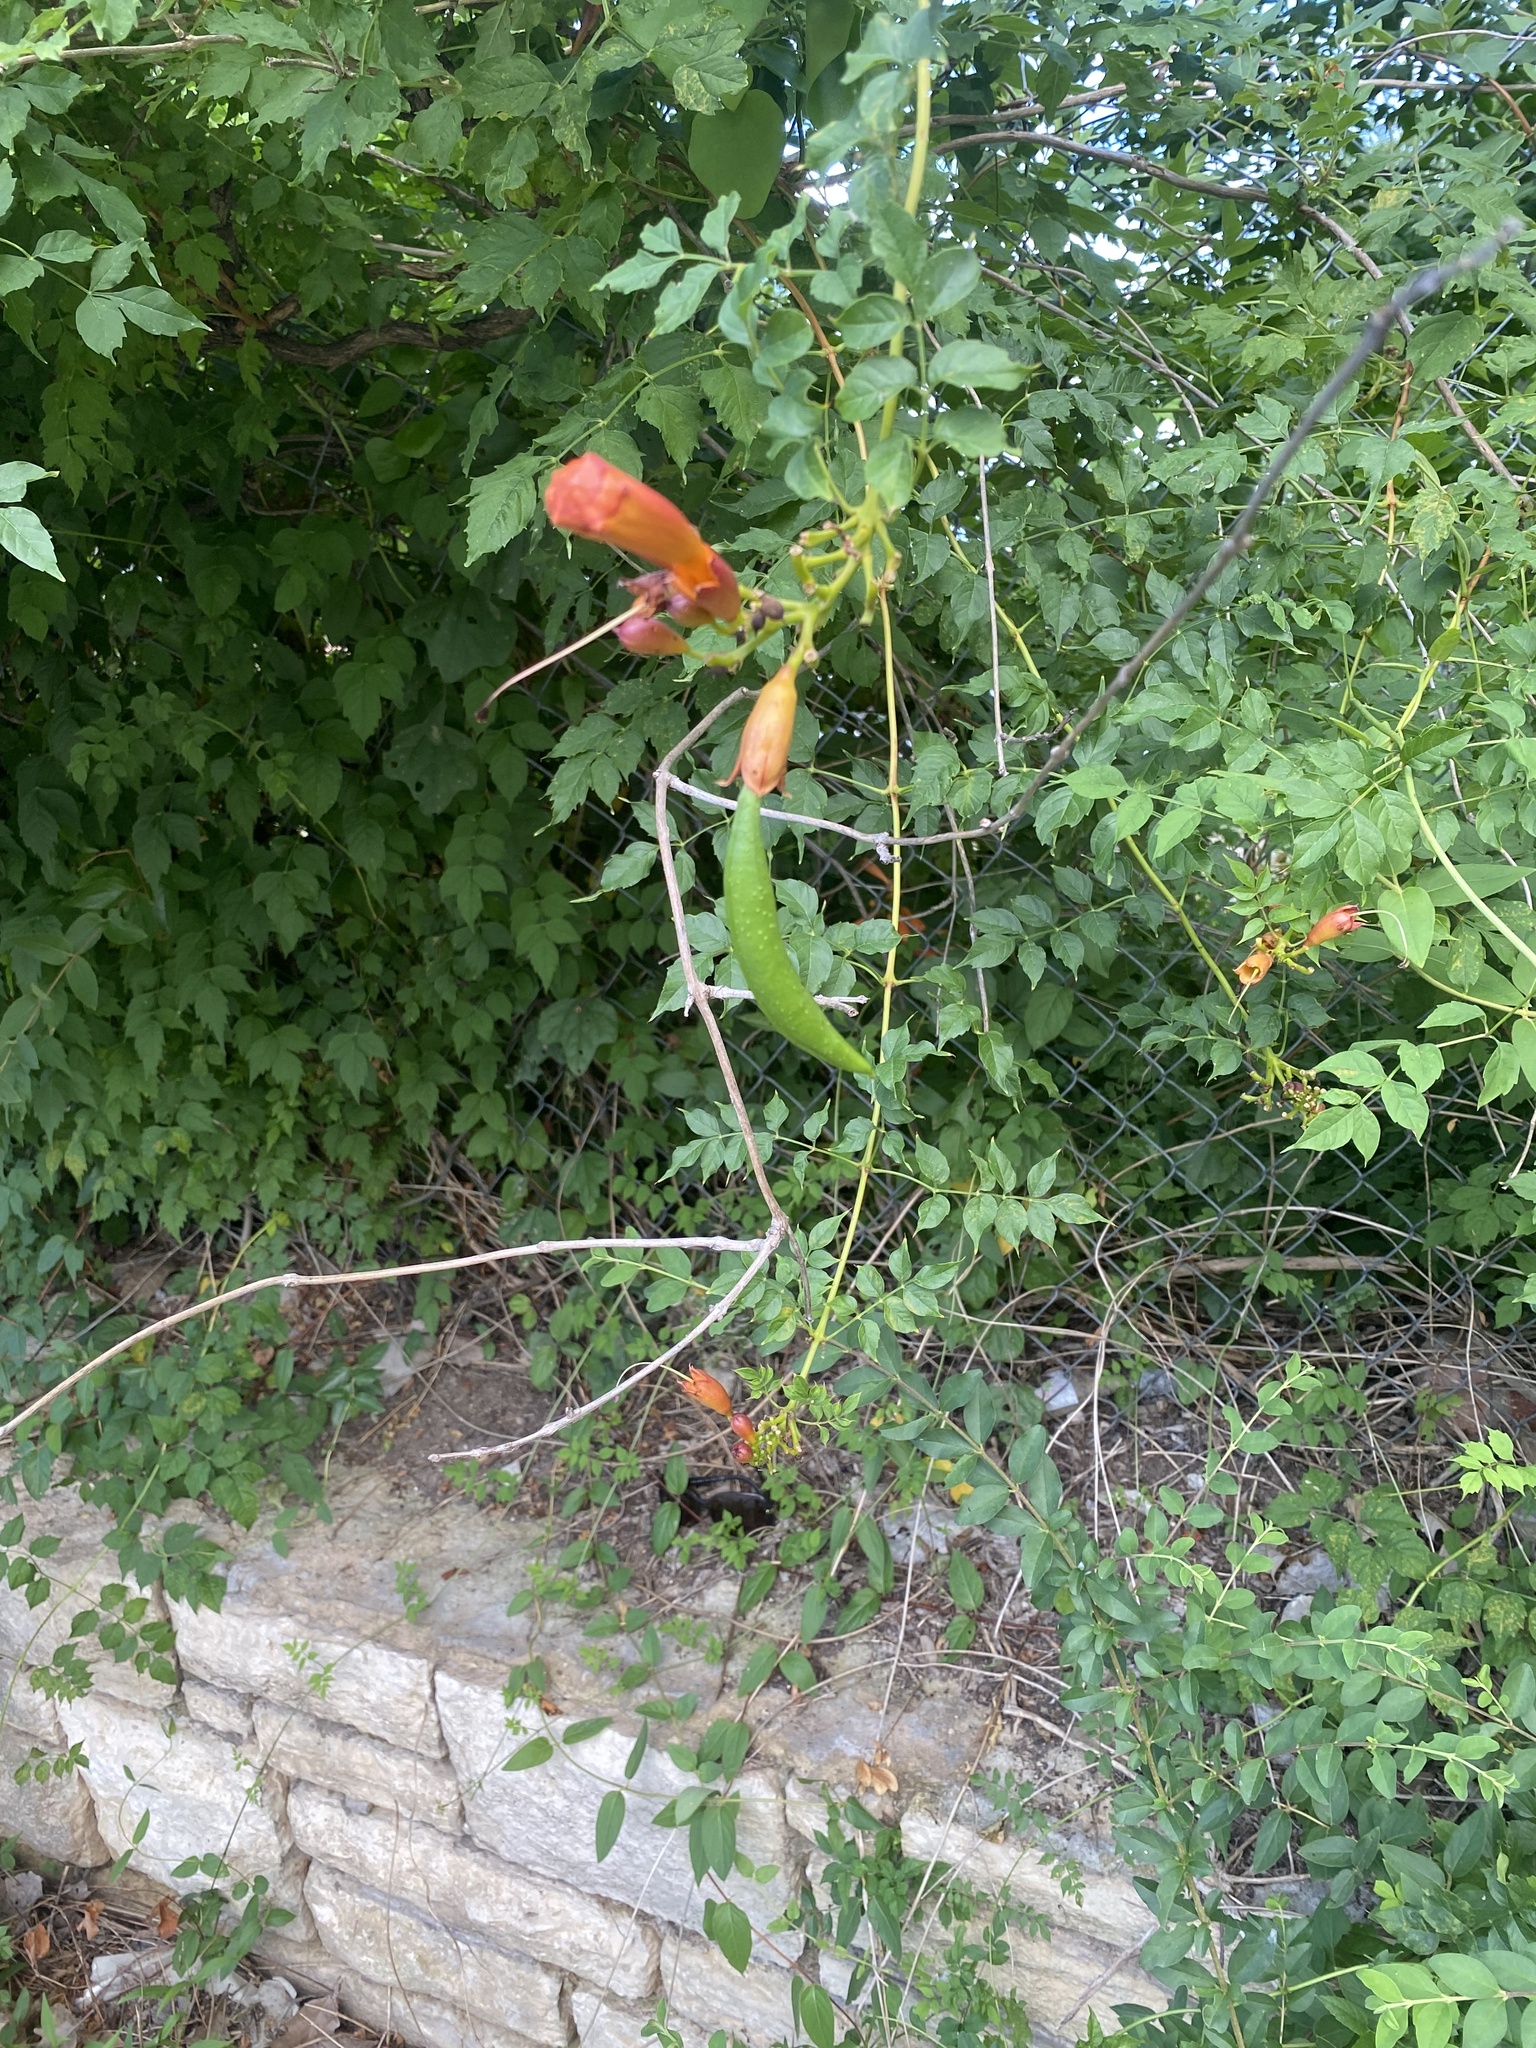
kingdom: Plantae
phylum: Tracheophyta
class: Magnoliopsida
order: Lamiales
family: Bignoniaceae
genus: Campsis
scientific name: Campsis radicans
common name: Trumpet-creeper
